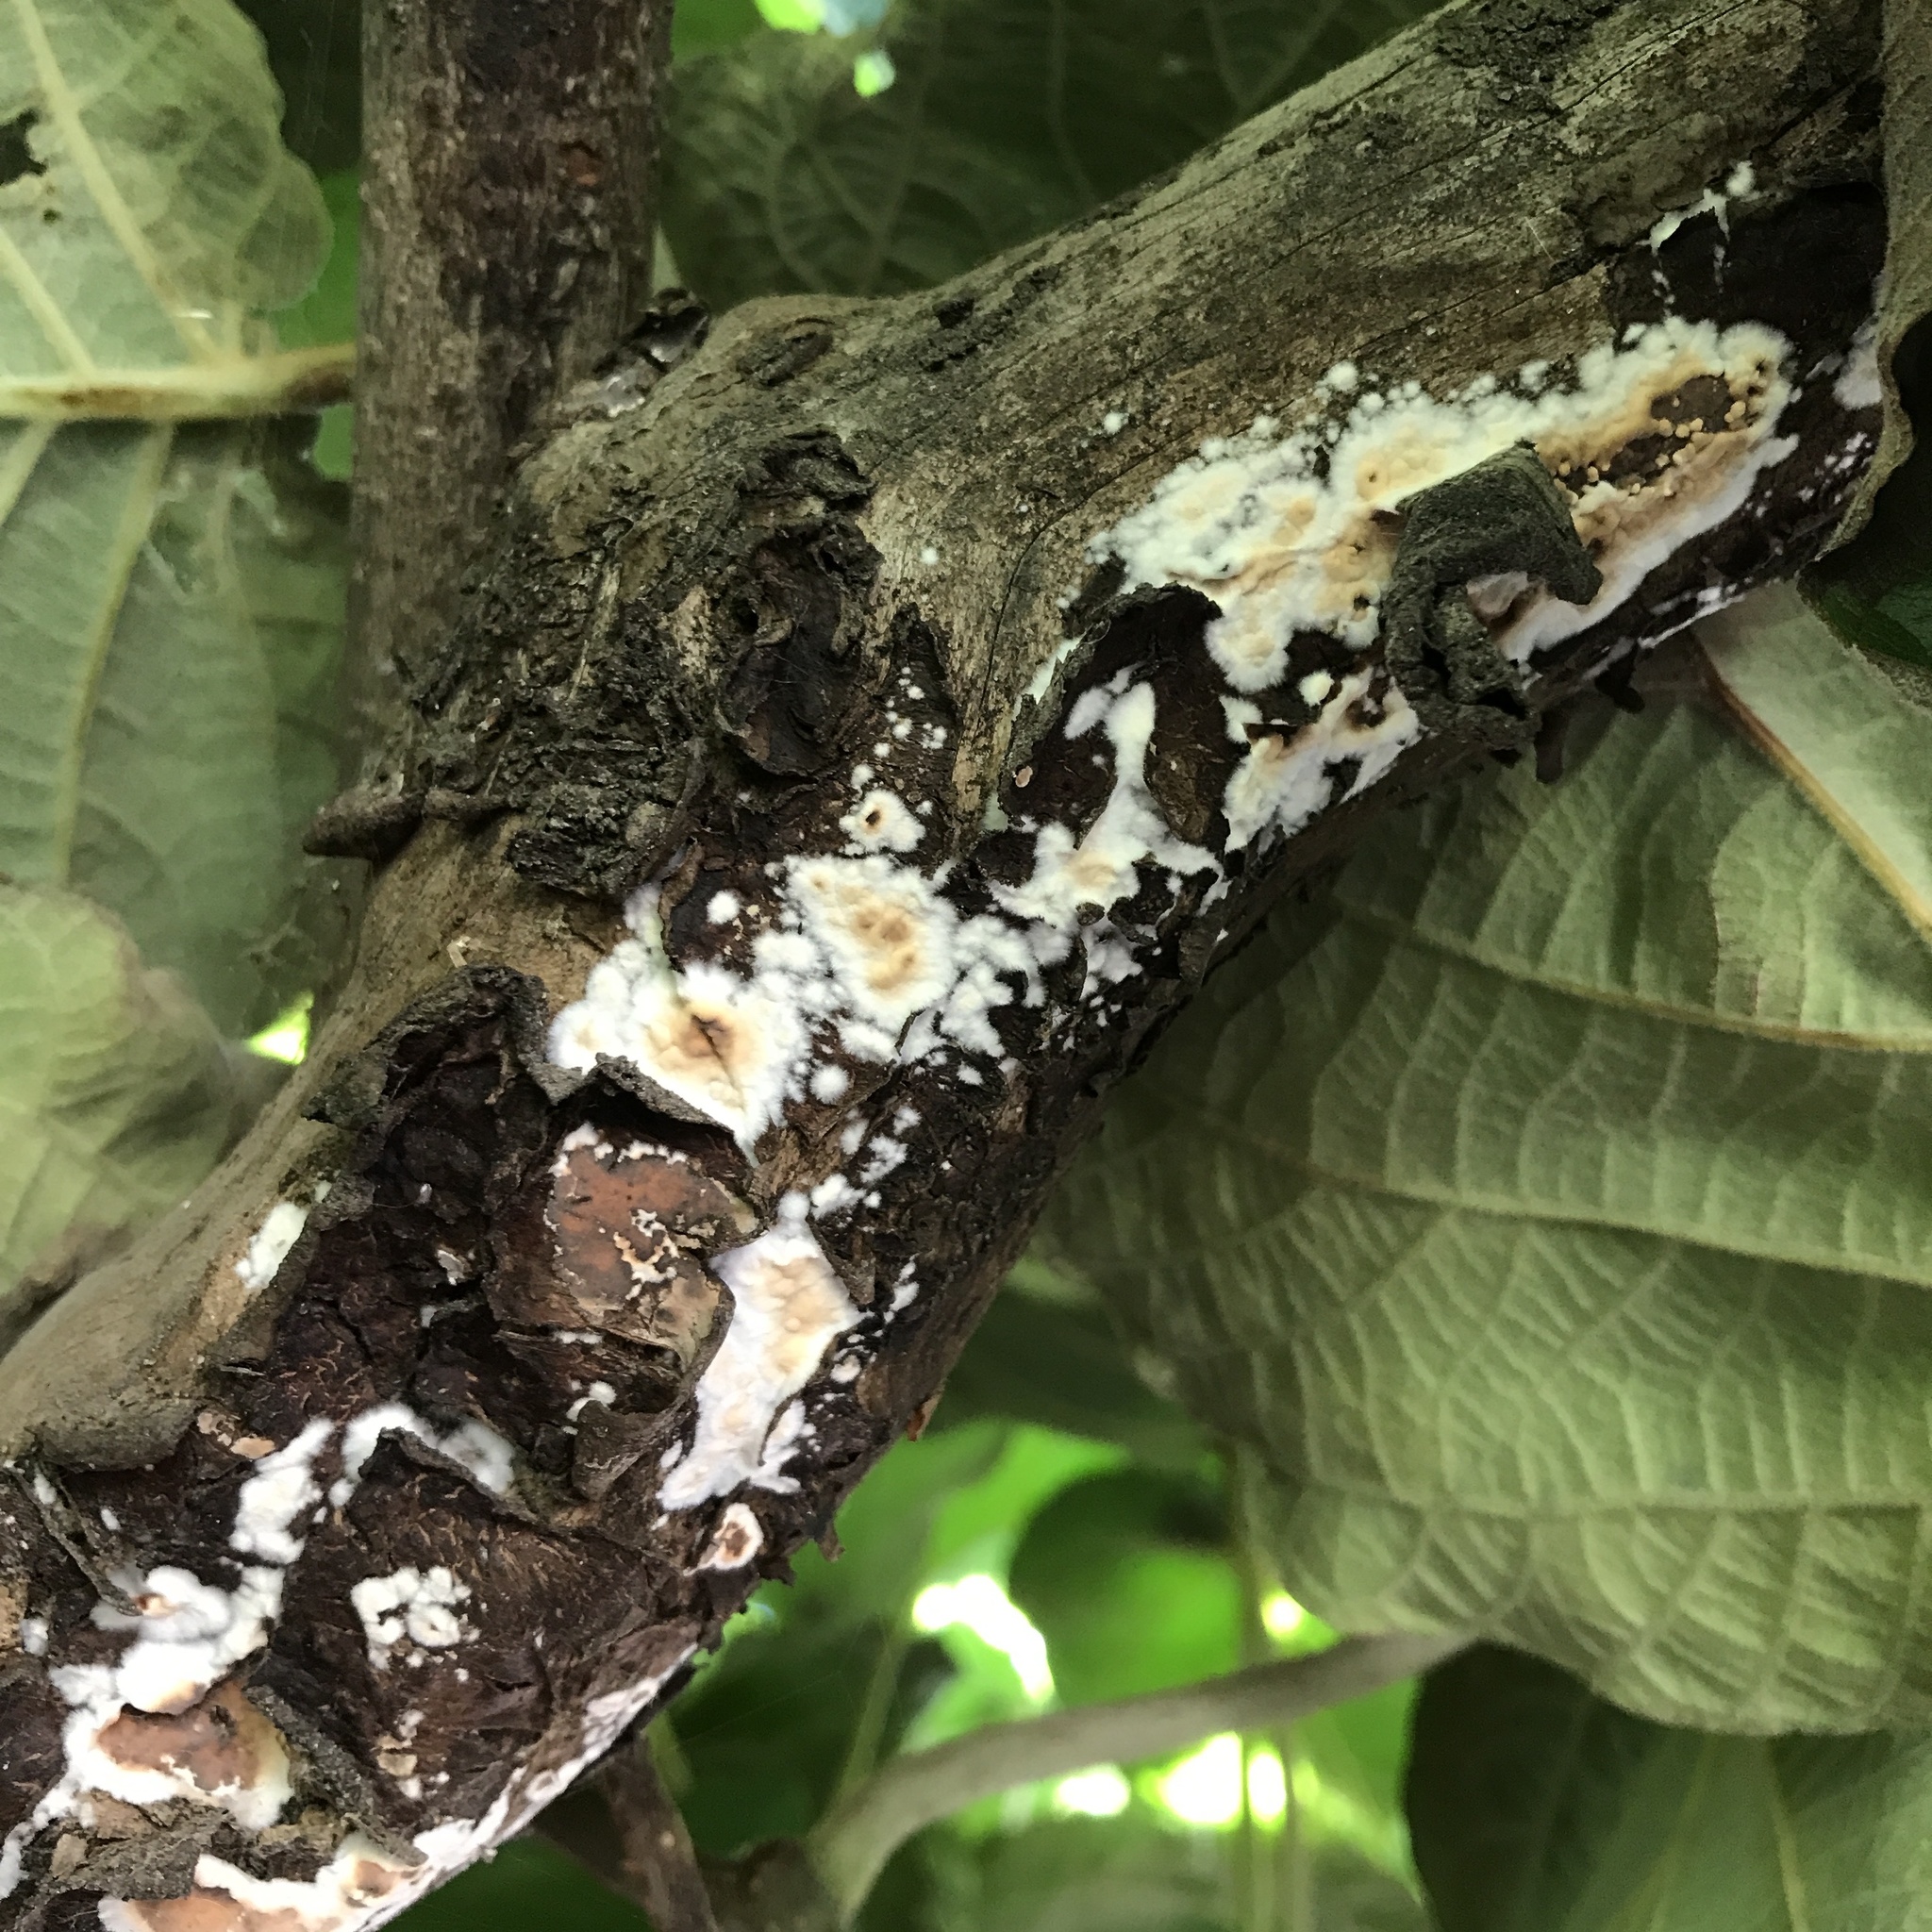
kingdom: Fungi
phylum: Basidiomycota
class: Agaricomycetes
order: Polyporales
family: Irpicaceae
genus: Byssomerulius
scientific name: Byssomerulius corium
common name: Netted crust
